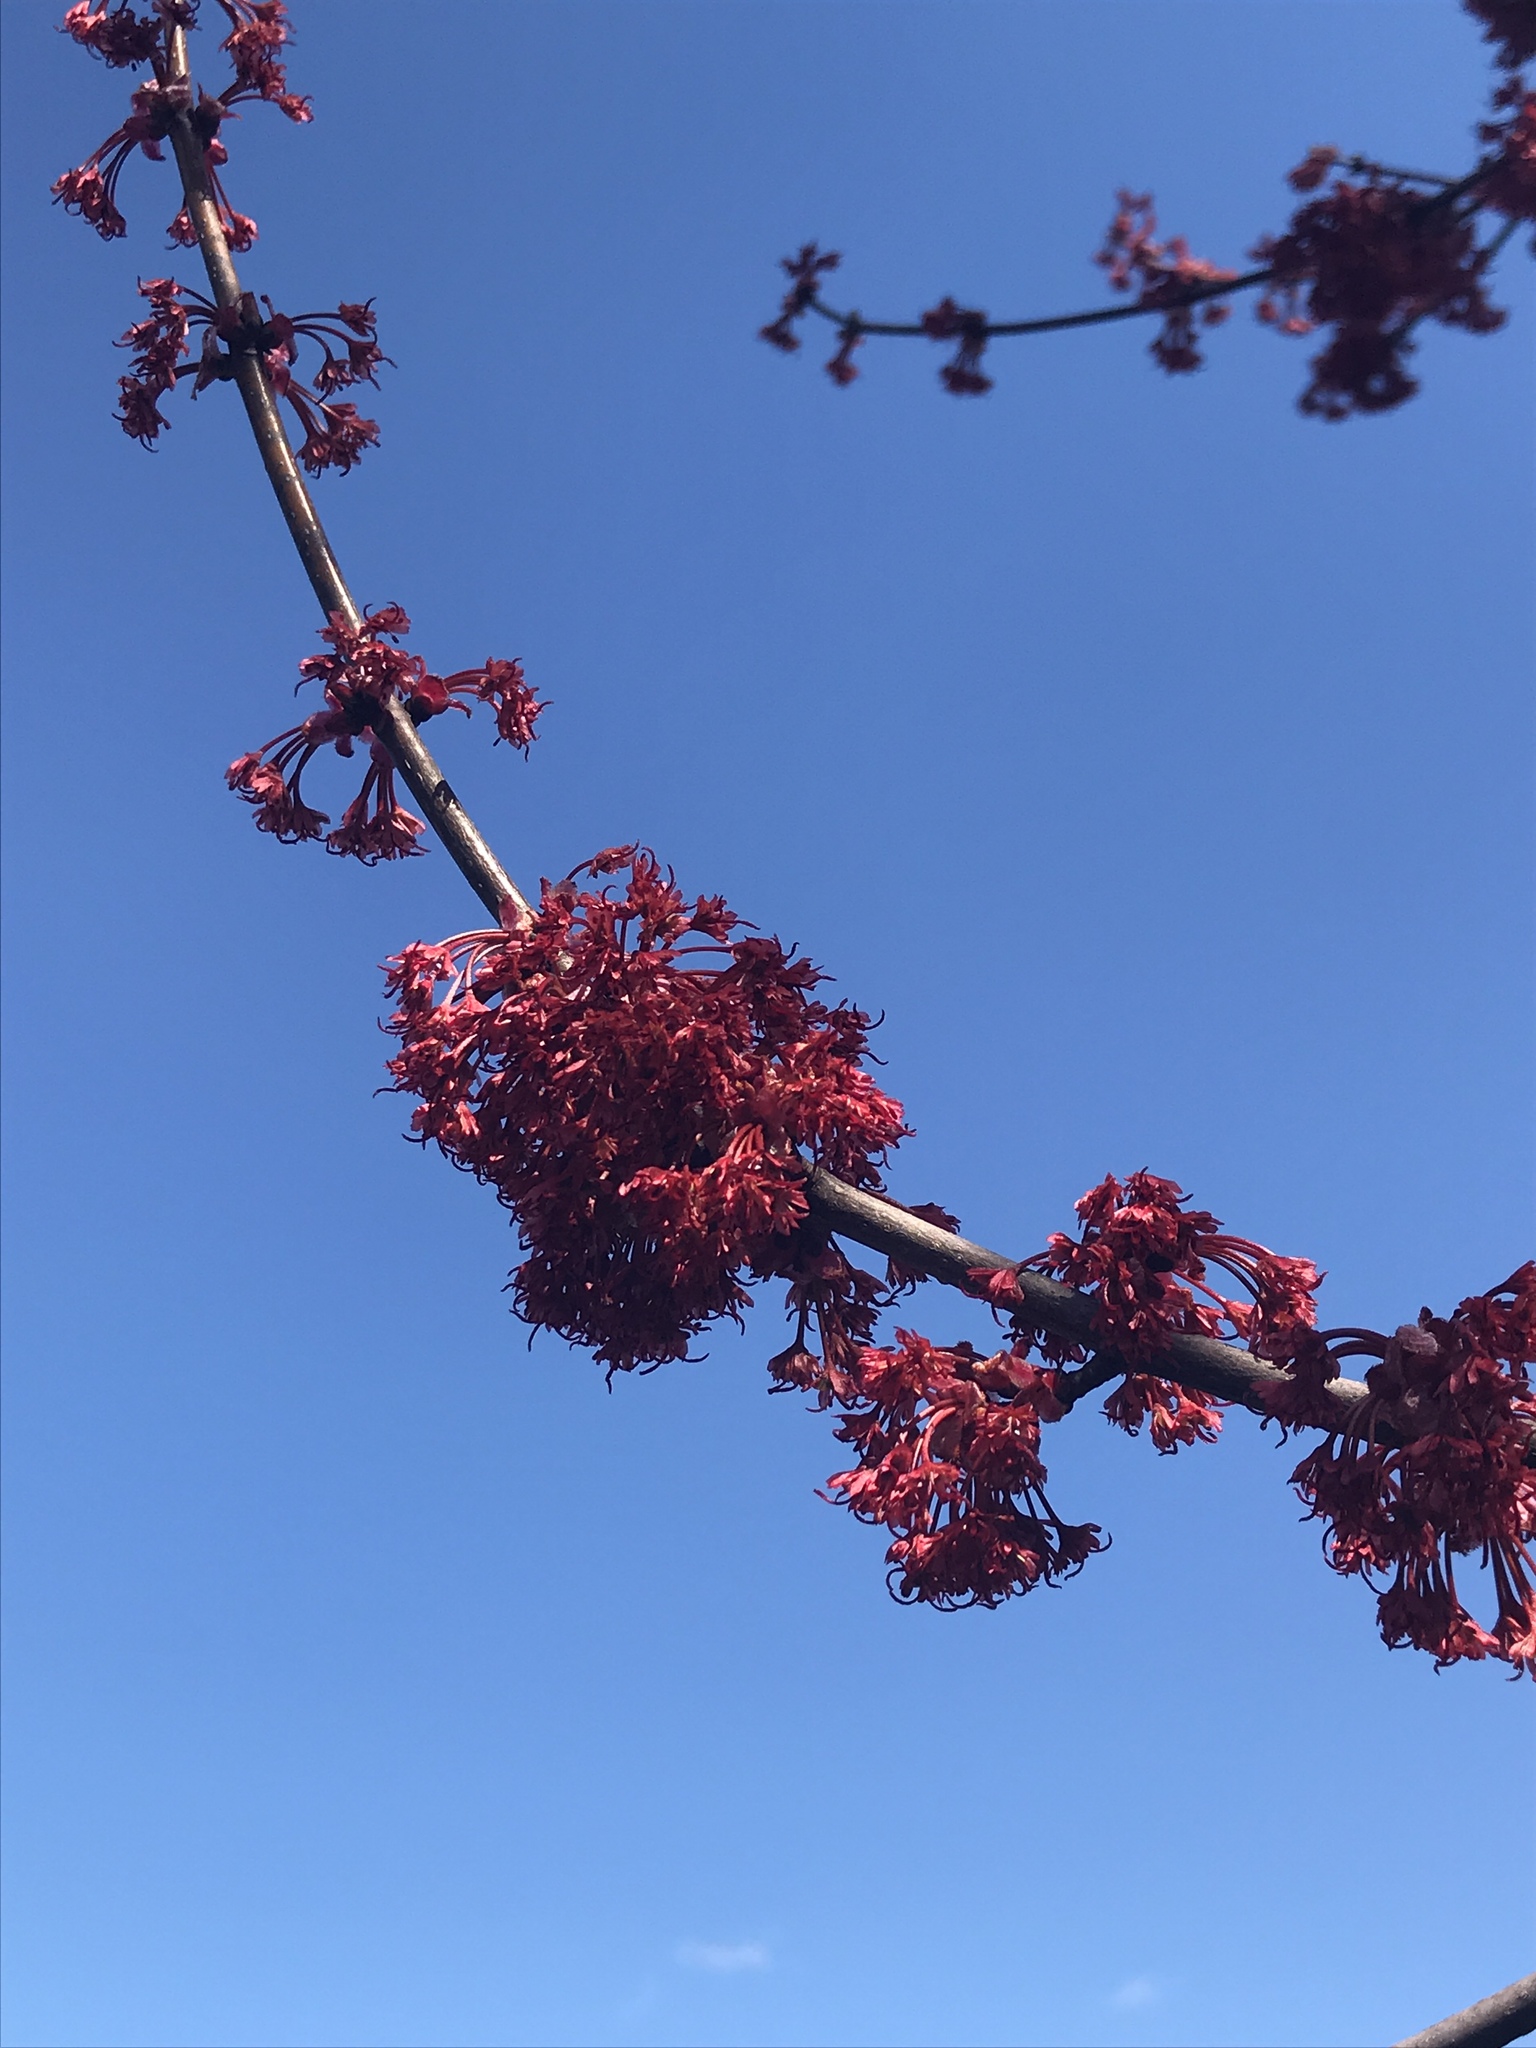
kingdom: Plantae
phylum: Tracheophyta
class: Magnoliopsida
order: Sapindales
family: Sapindaceae
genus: Acer
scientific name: Acer rubrum
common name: Red maple
